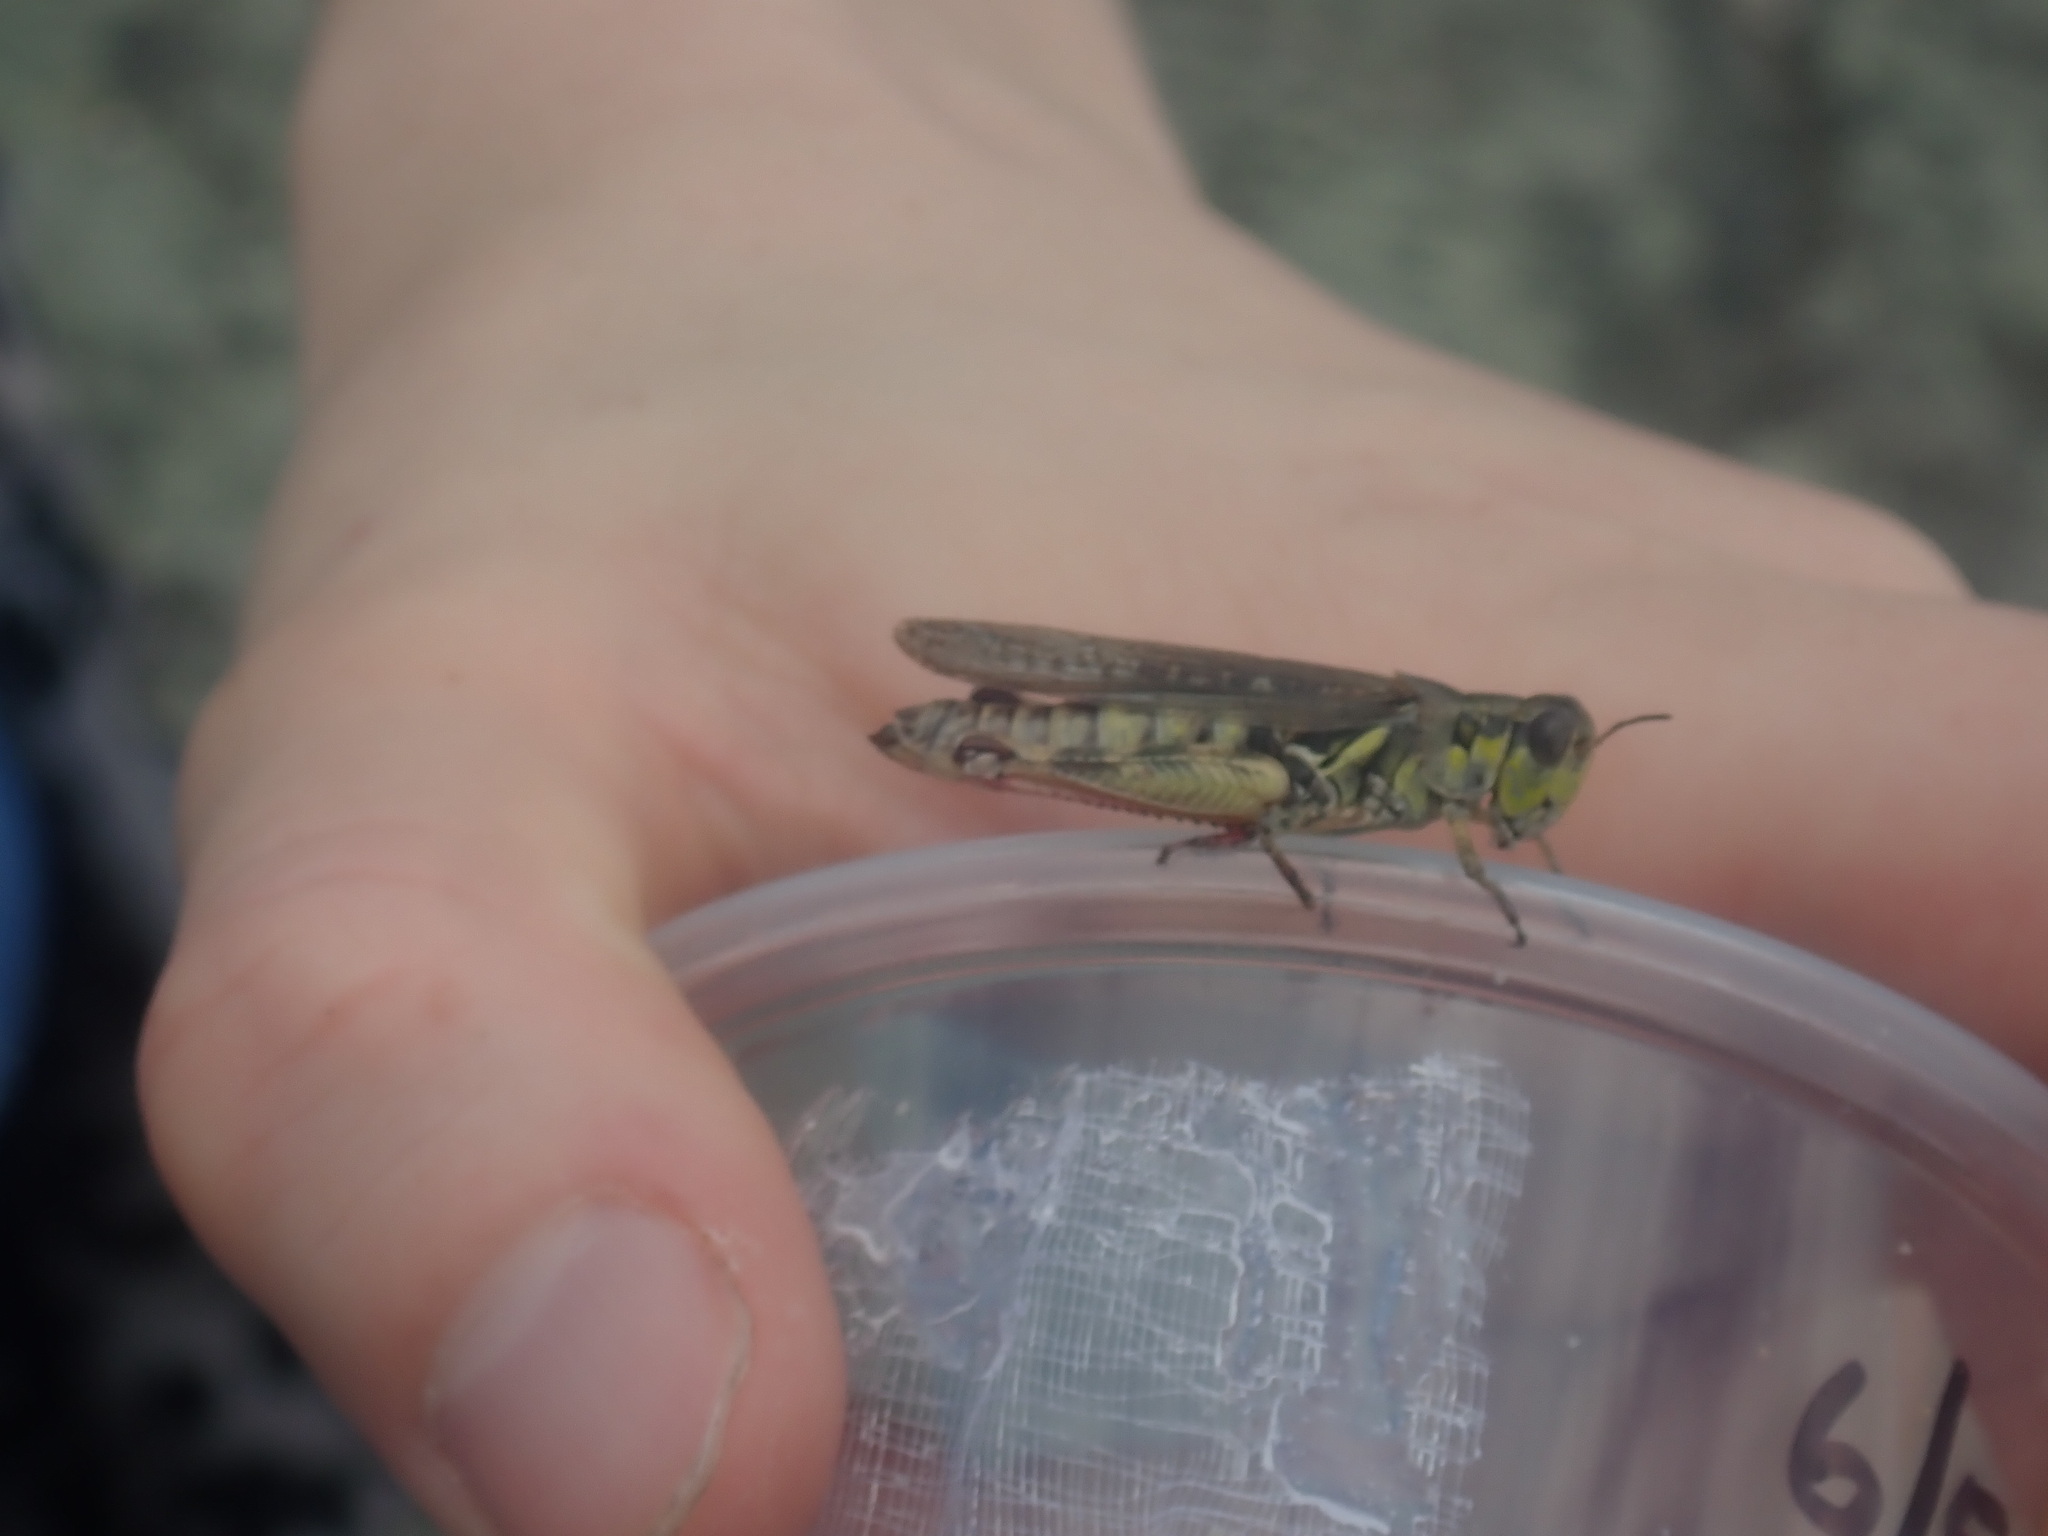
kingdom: Animalia
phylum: Arthropoda
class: Insecta
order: Orthoptera
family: Acrididae
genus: Melanoplus
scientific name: Melanoplus
